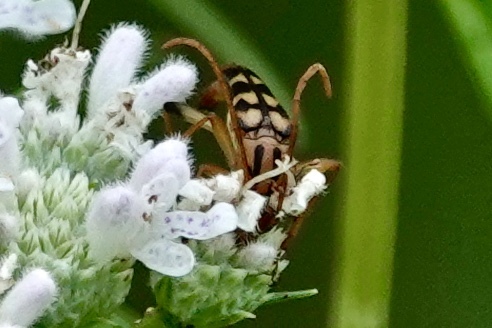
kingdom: Animalia
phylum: Arthropoda
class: Insecta
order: Coleoptera
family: Cerambycidae
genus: Strangalia
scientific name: Strangalia luteicornis
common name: Yellow-horned flower longhorn beetle
